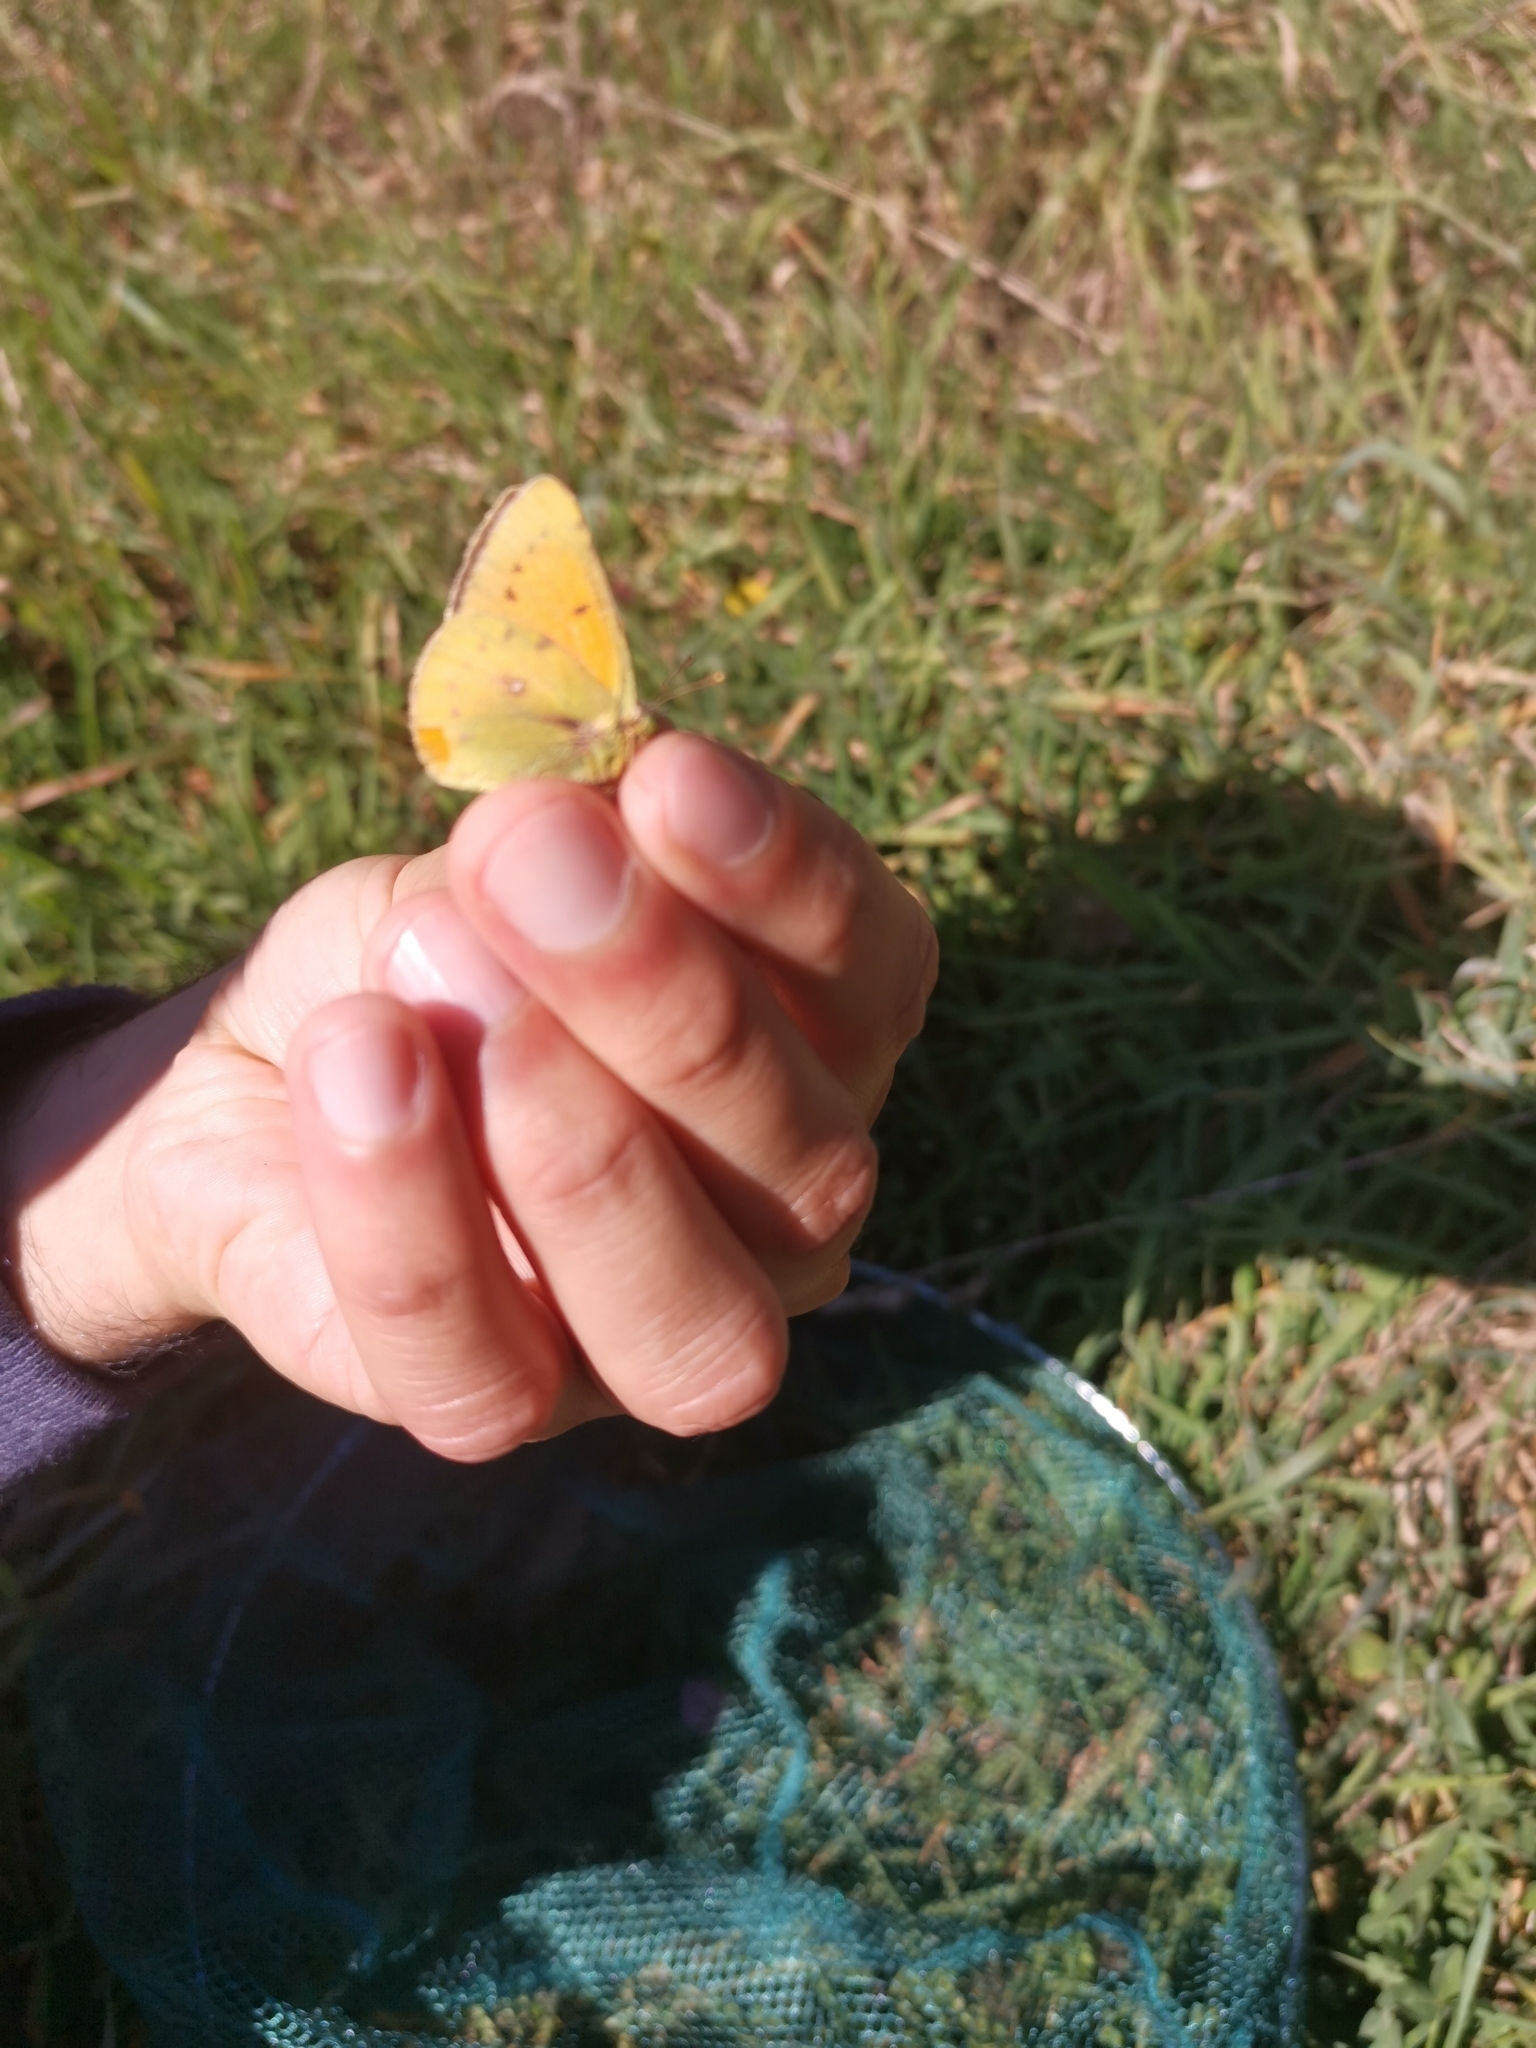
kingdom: Animalia
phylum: Arthropoda
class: Insecta
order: Lepidoptera
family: Pieridae
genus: Colias
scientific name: Colias vauthierii
